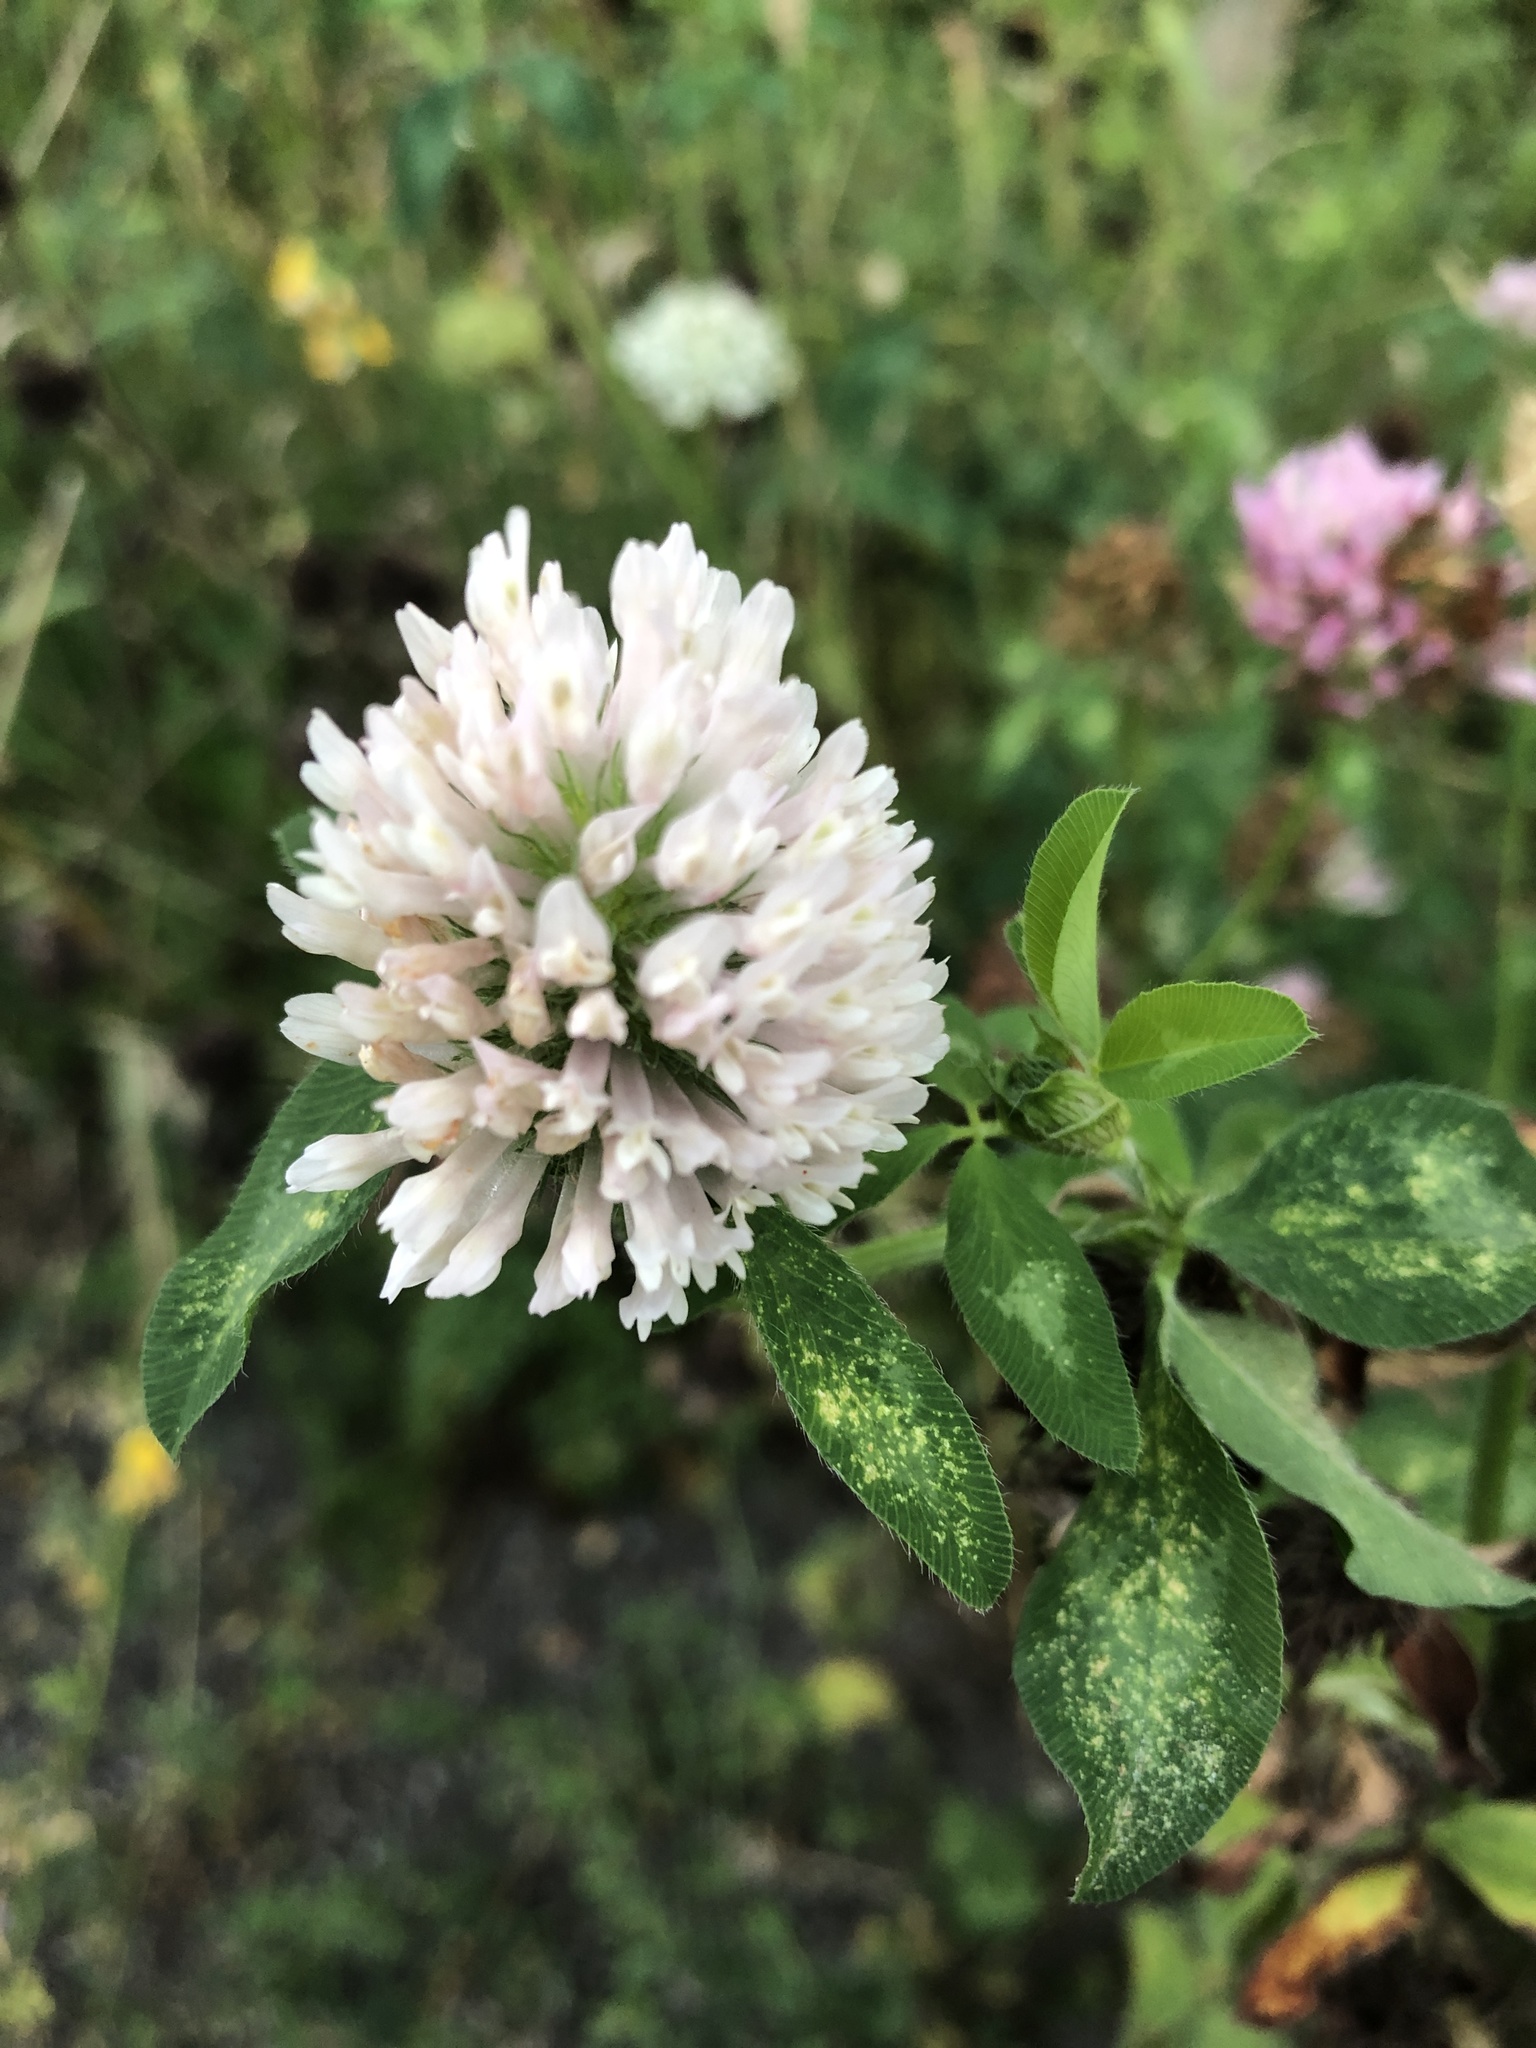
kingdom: Plantae
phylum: Tracheophyta
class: Magnoliopsida
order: Fabales
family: Fabaceae
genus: Trifolium
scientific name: Trifolium pratense
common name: Red clover
